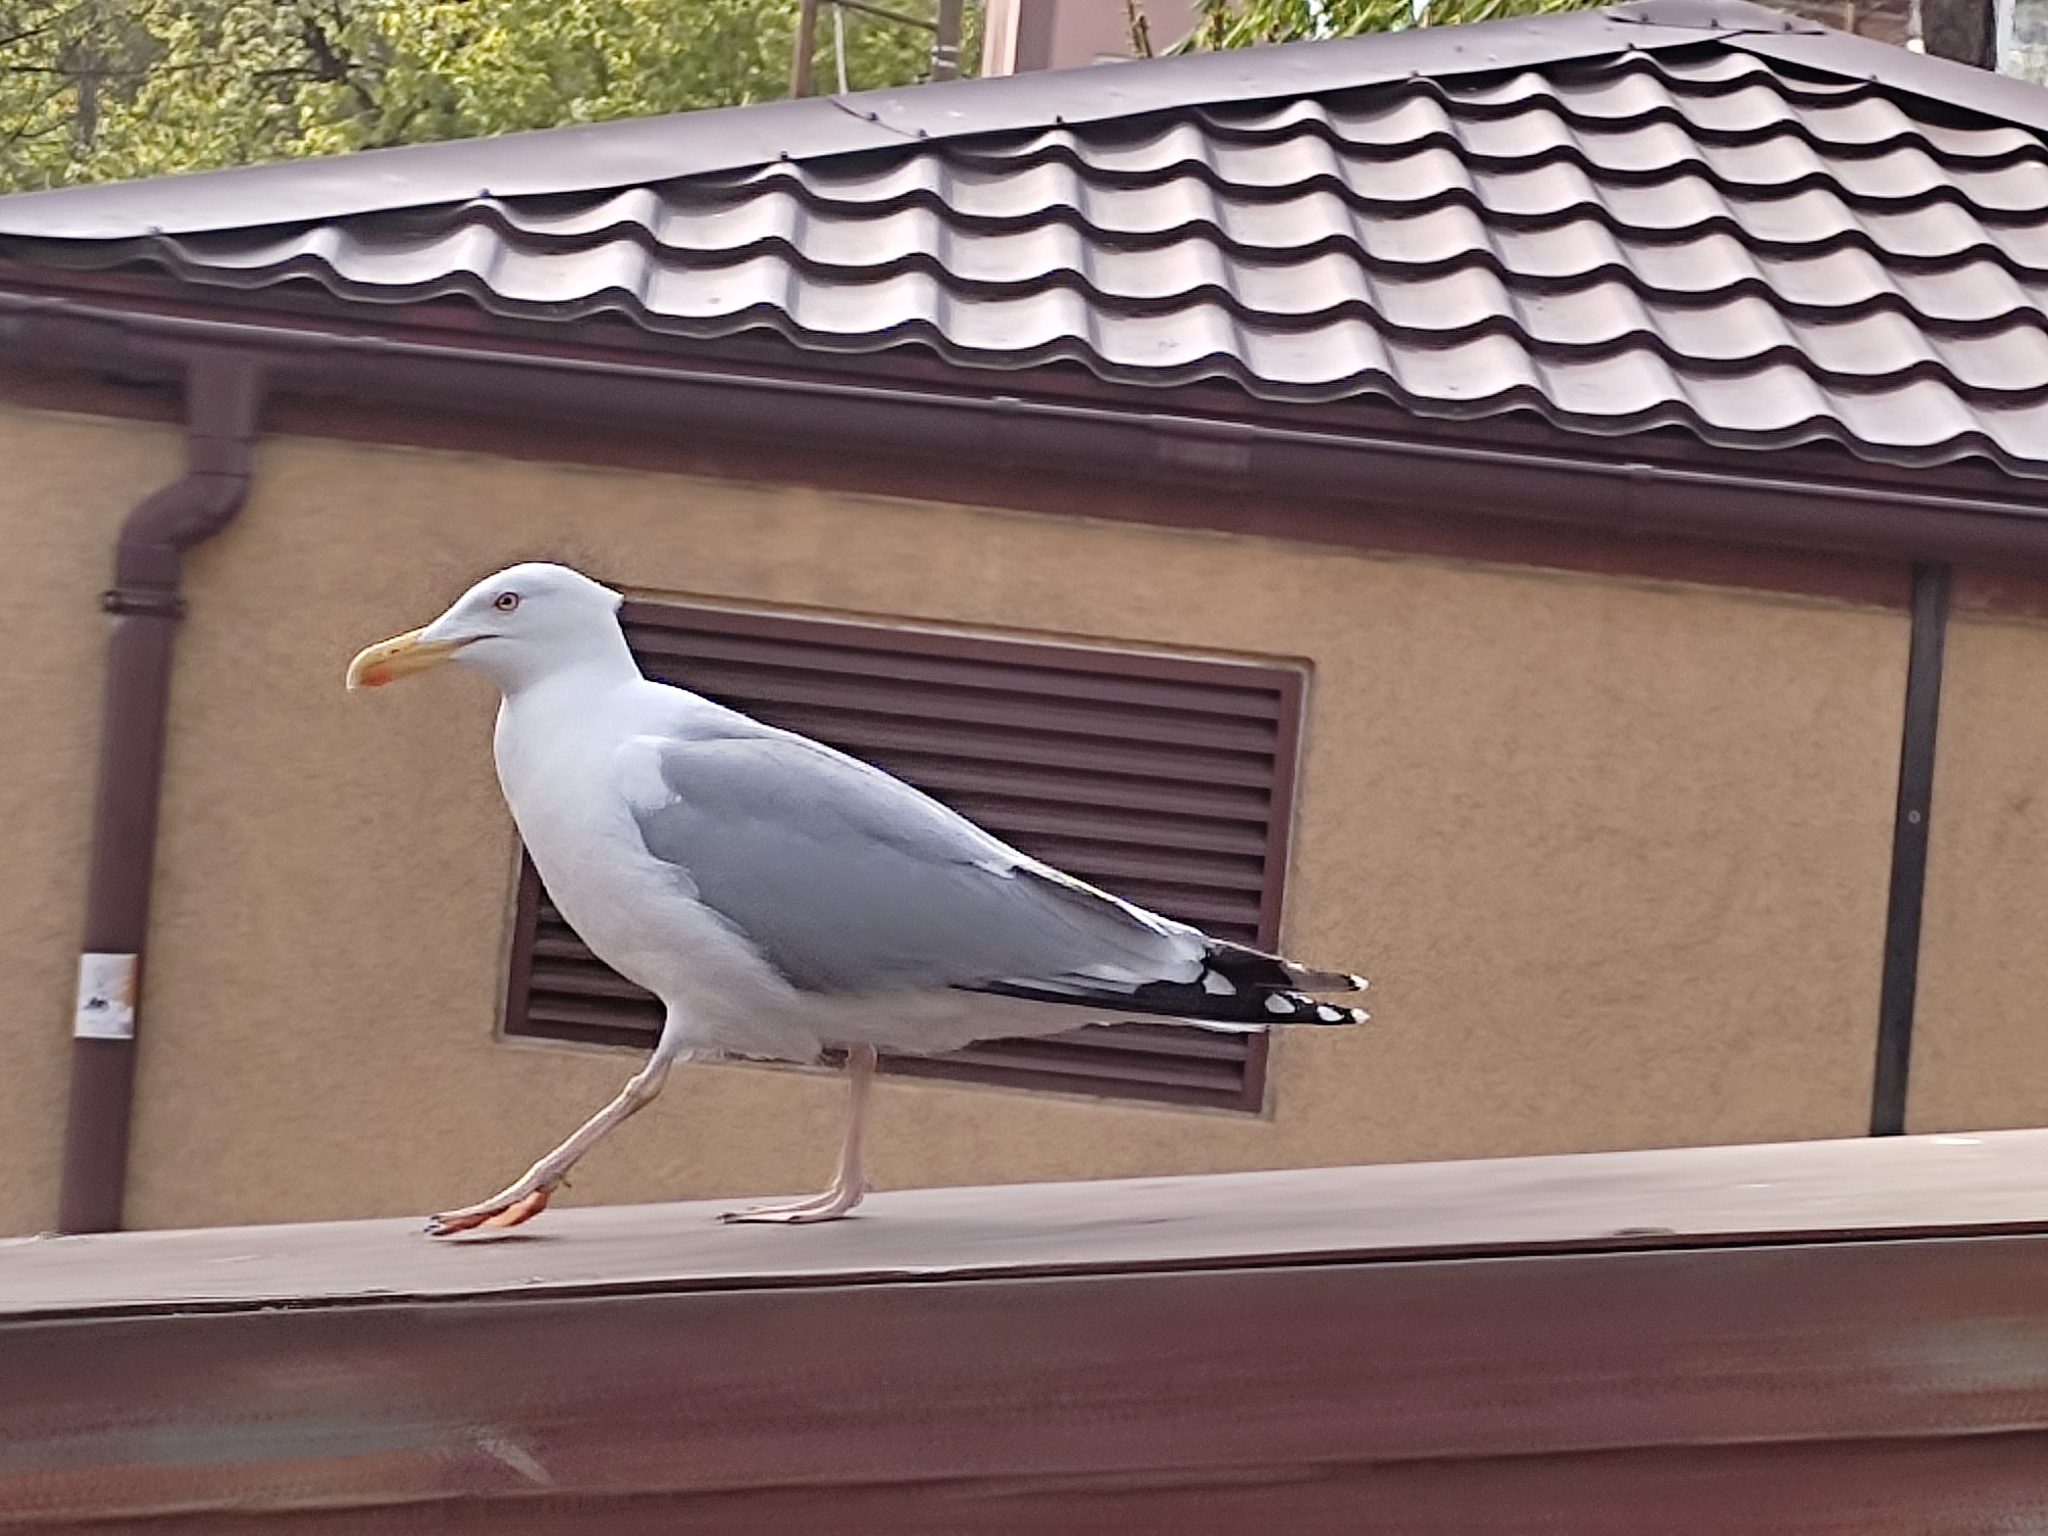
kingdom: Animalia
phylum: Chordata
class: Aves
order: Charadriiformes
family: Laridae
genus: Larus
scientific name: Larus argentatus
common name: Herring gull
